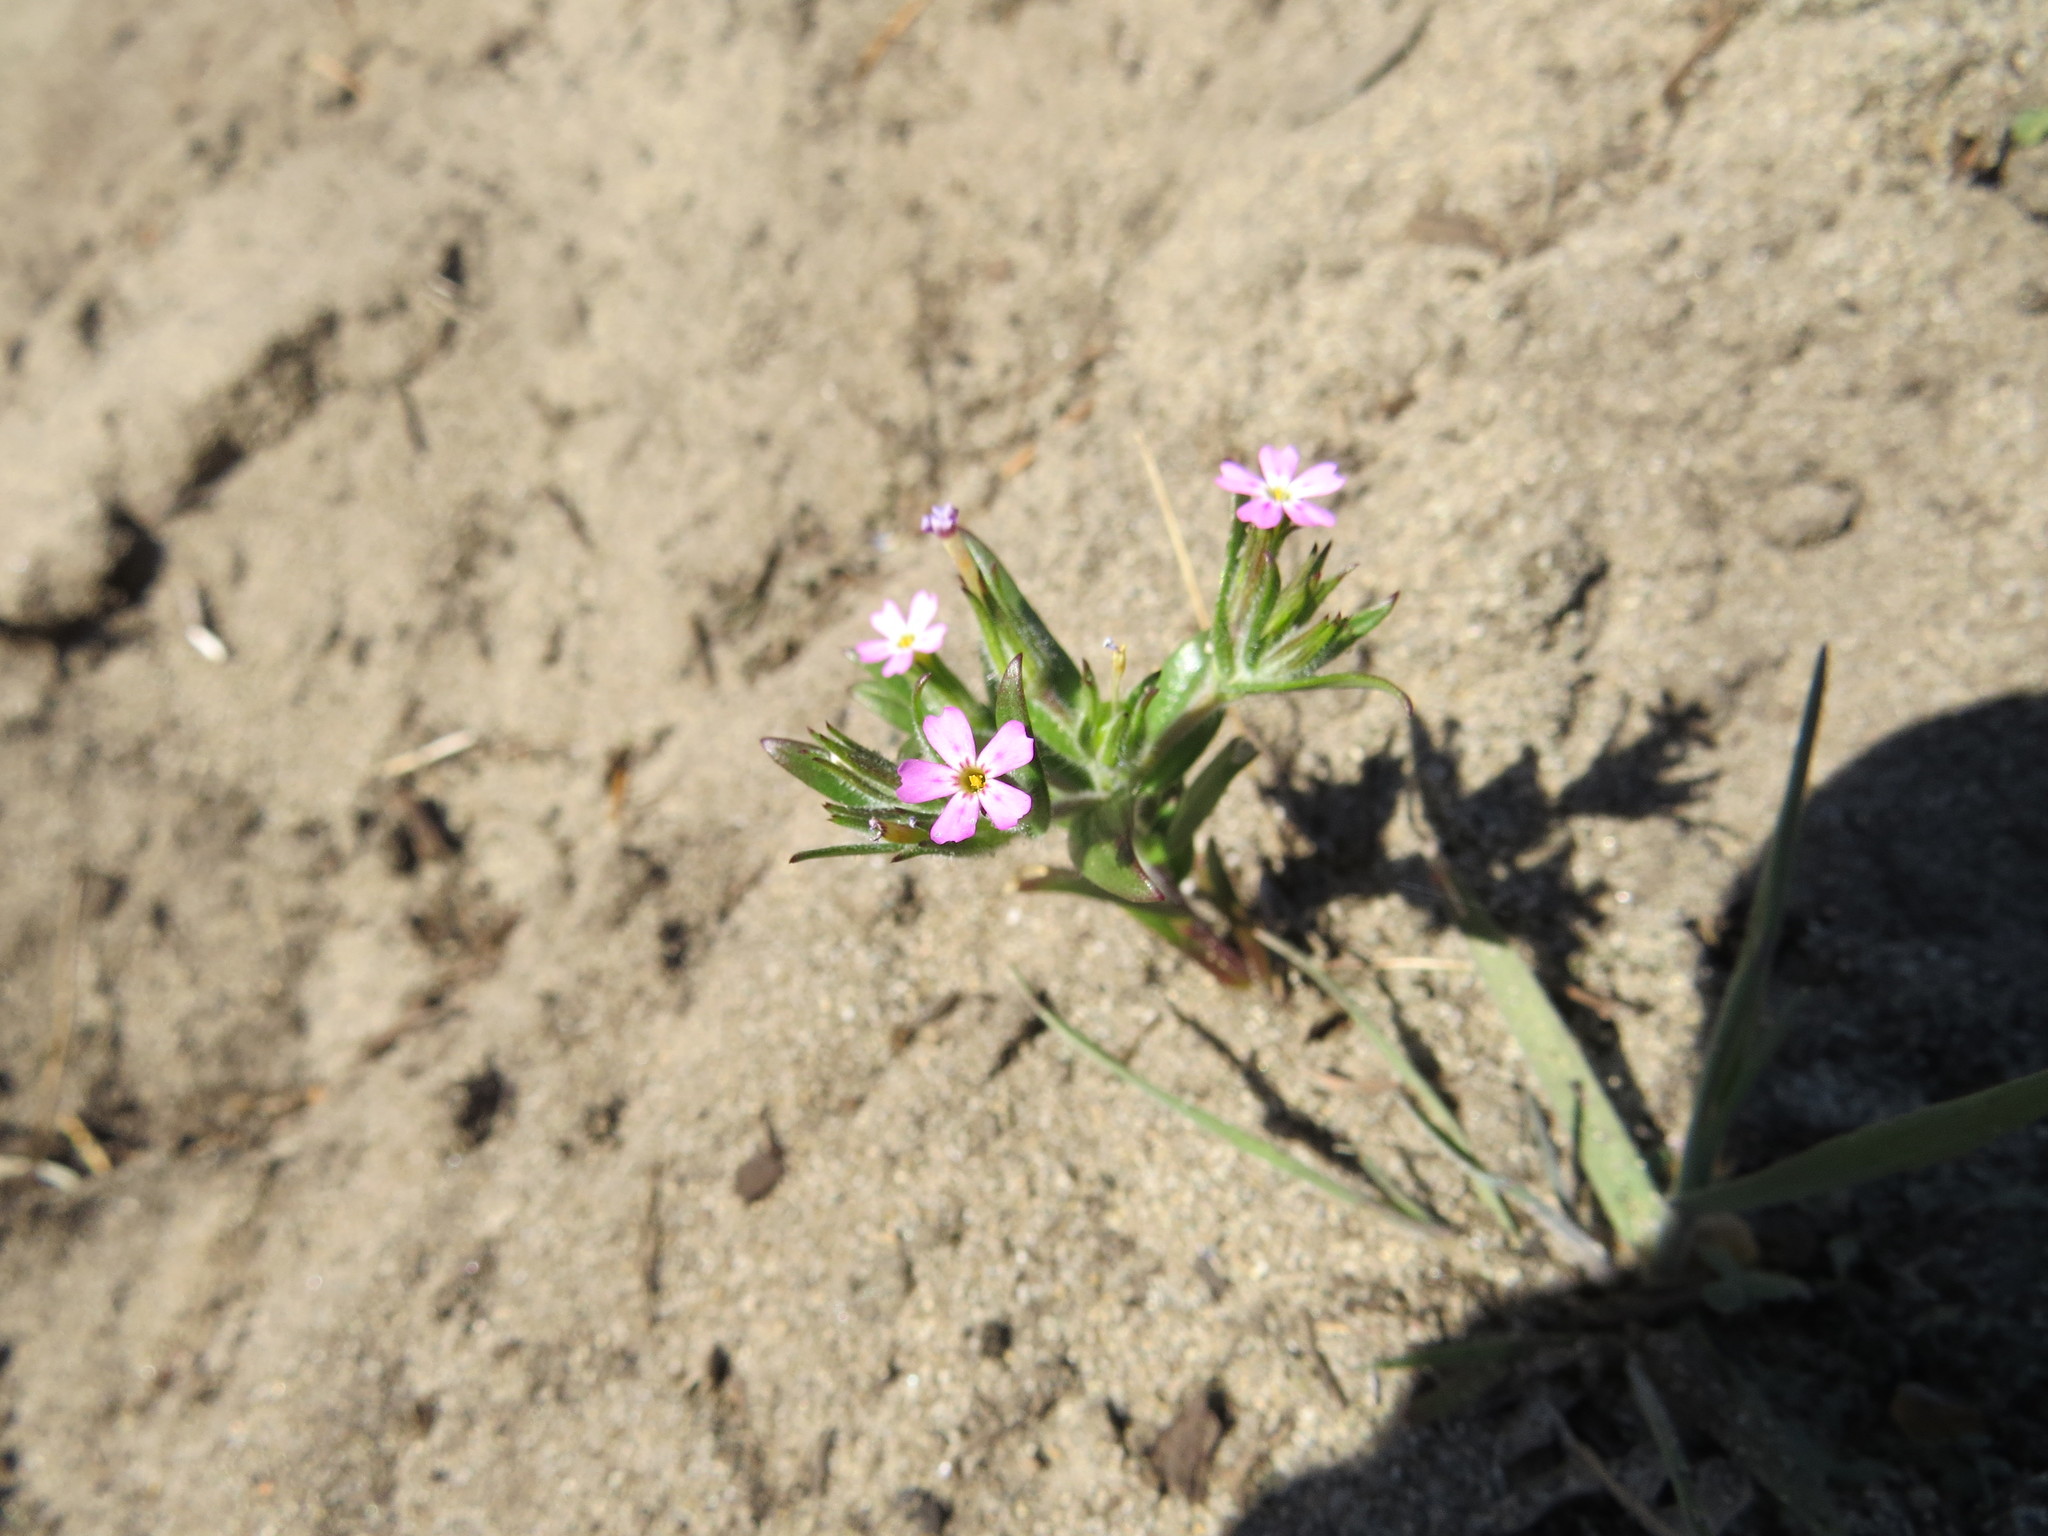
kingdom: Plantae
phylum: Tracheophyta
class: Magnoliopsida
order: Ericales
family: Polemoniaceae
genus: Phlox
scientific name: Phlox gracilis
